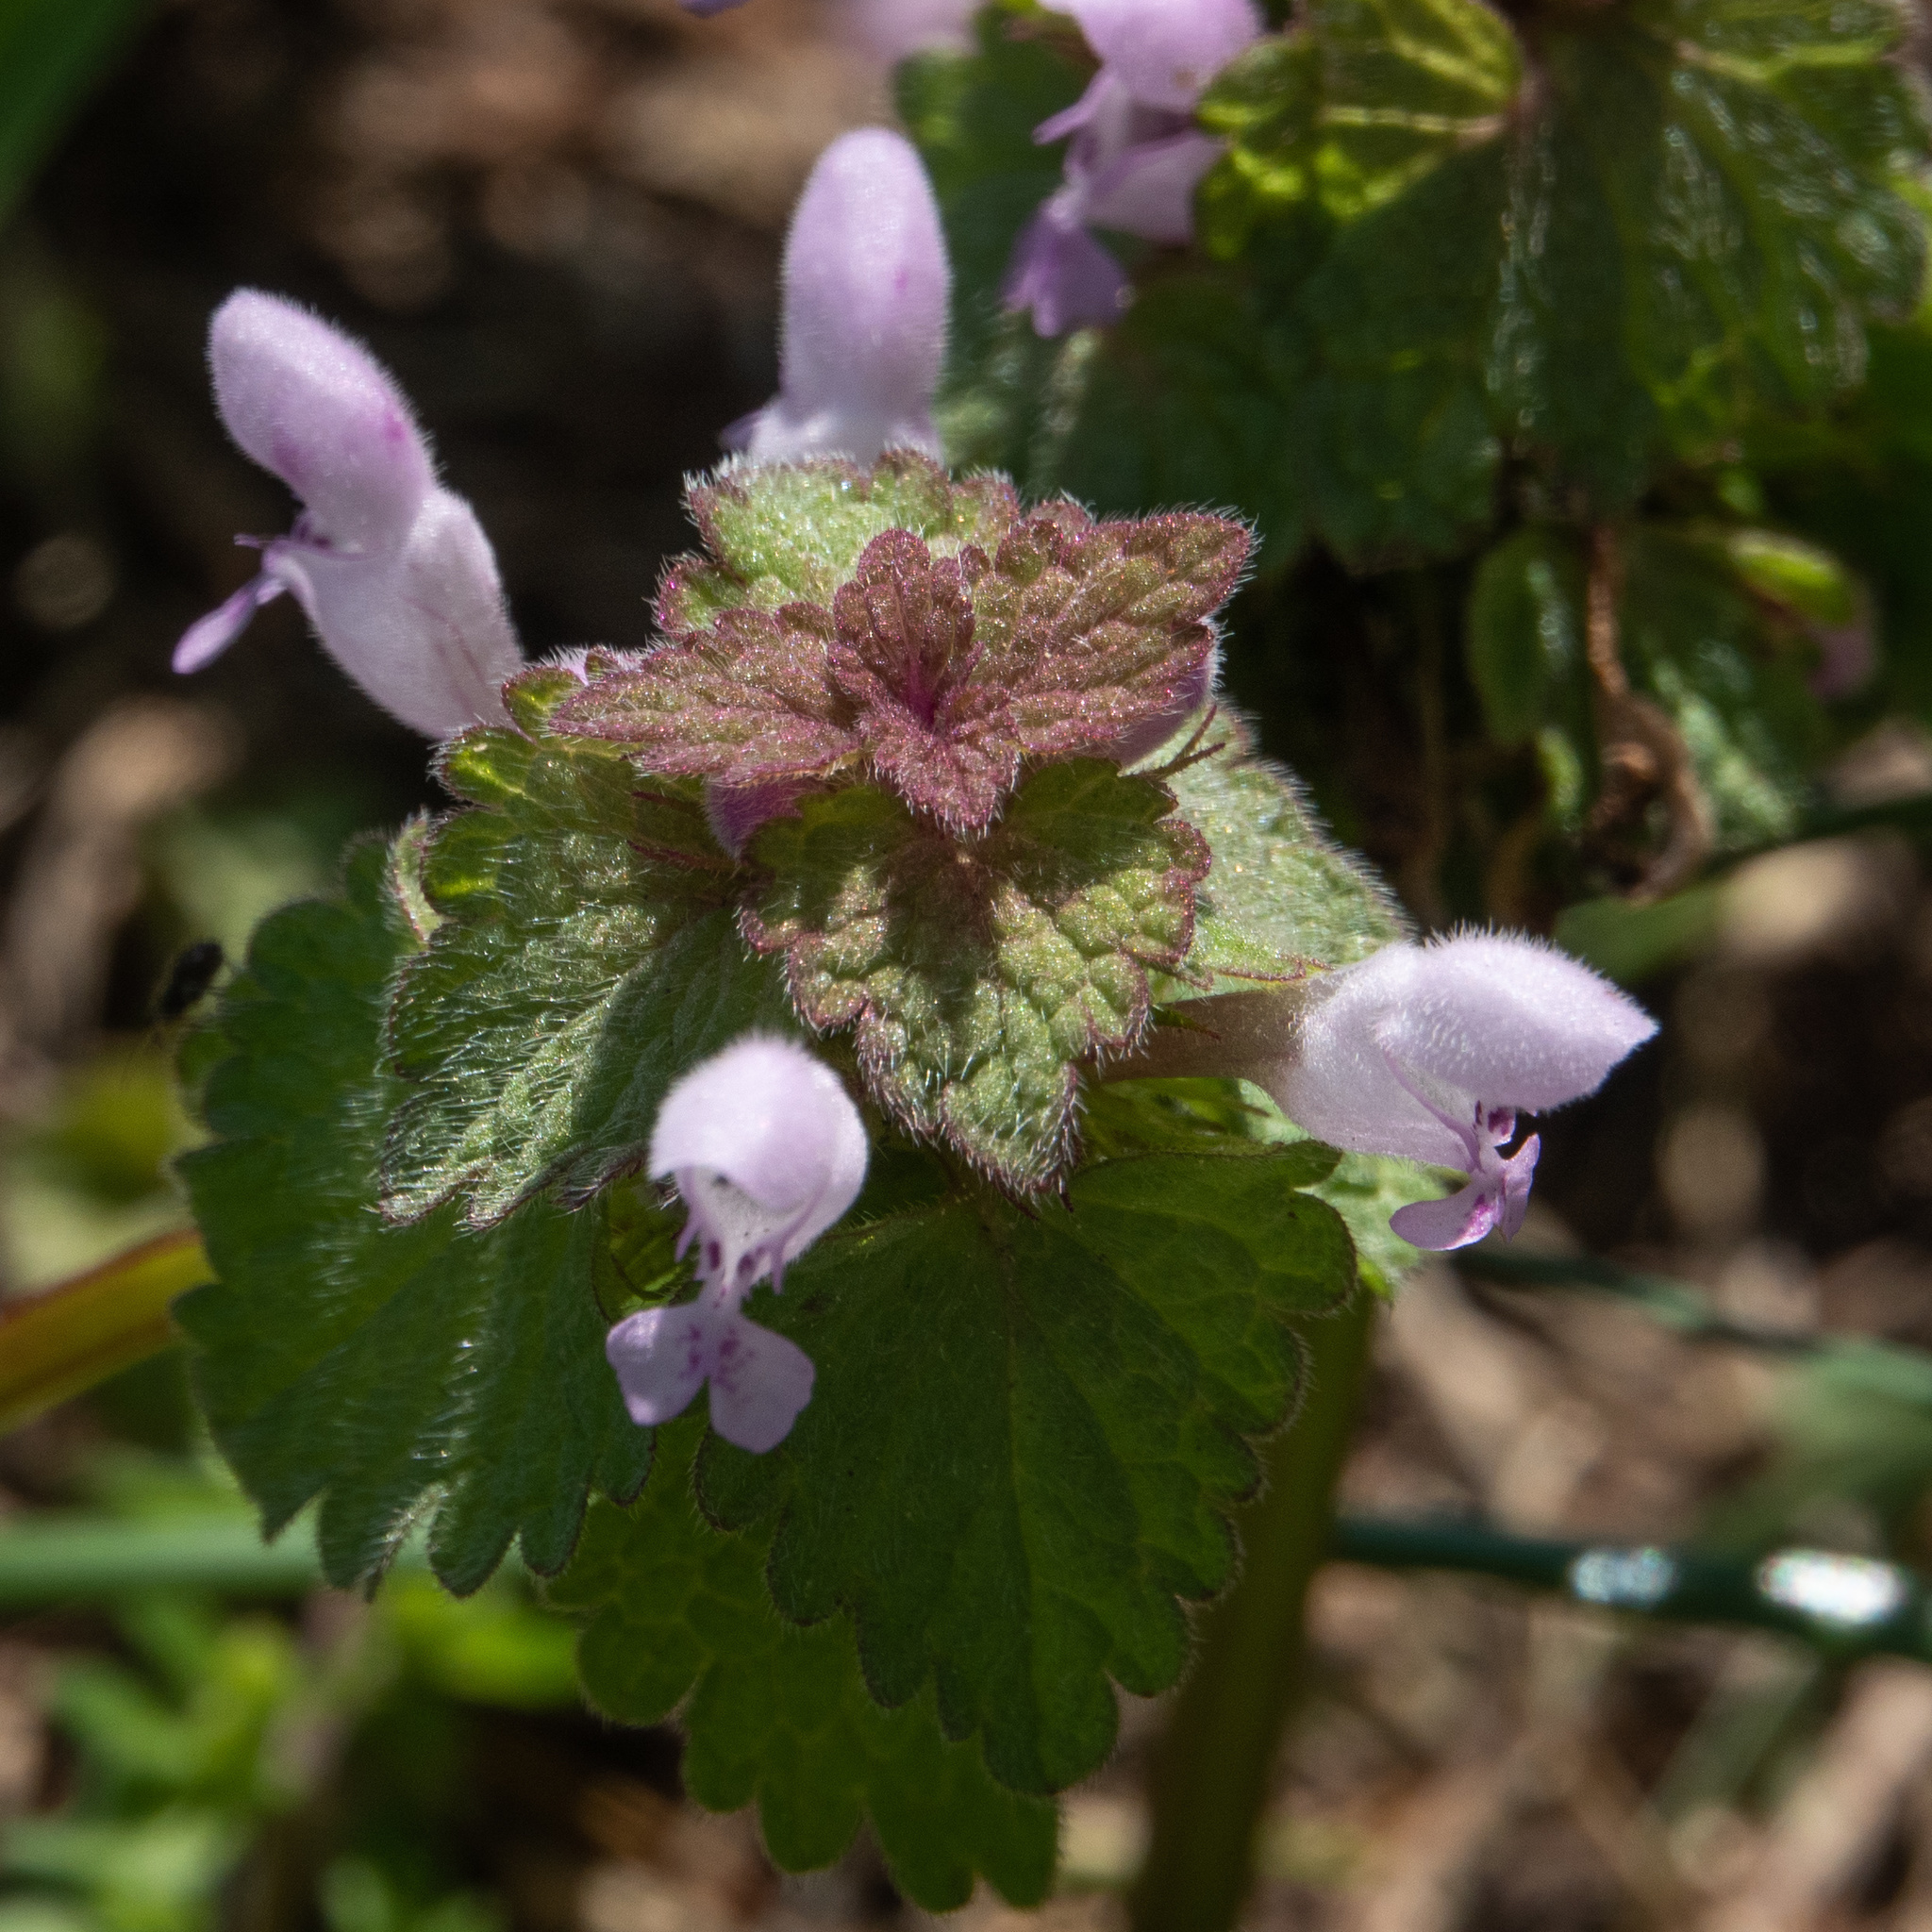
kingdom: Plantae
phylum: Tracheophyta
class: Magnoliopsida
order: Lamiales
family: Lamiaceae
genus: Lamium
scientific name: Lamium purpureum
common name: Red dead-nettle
